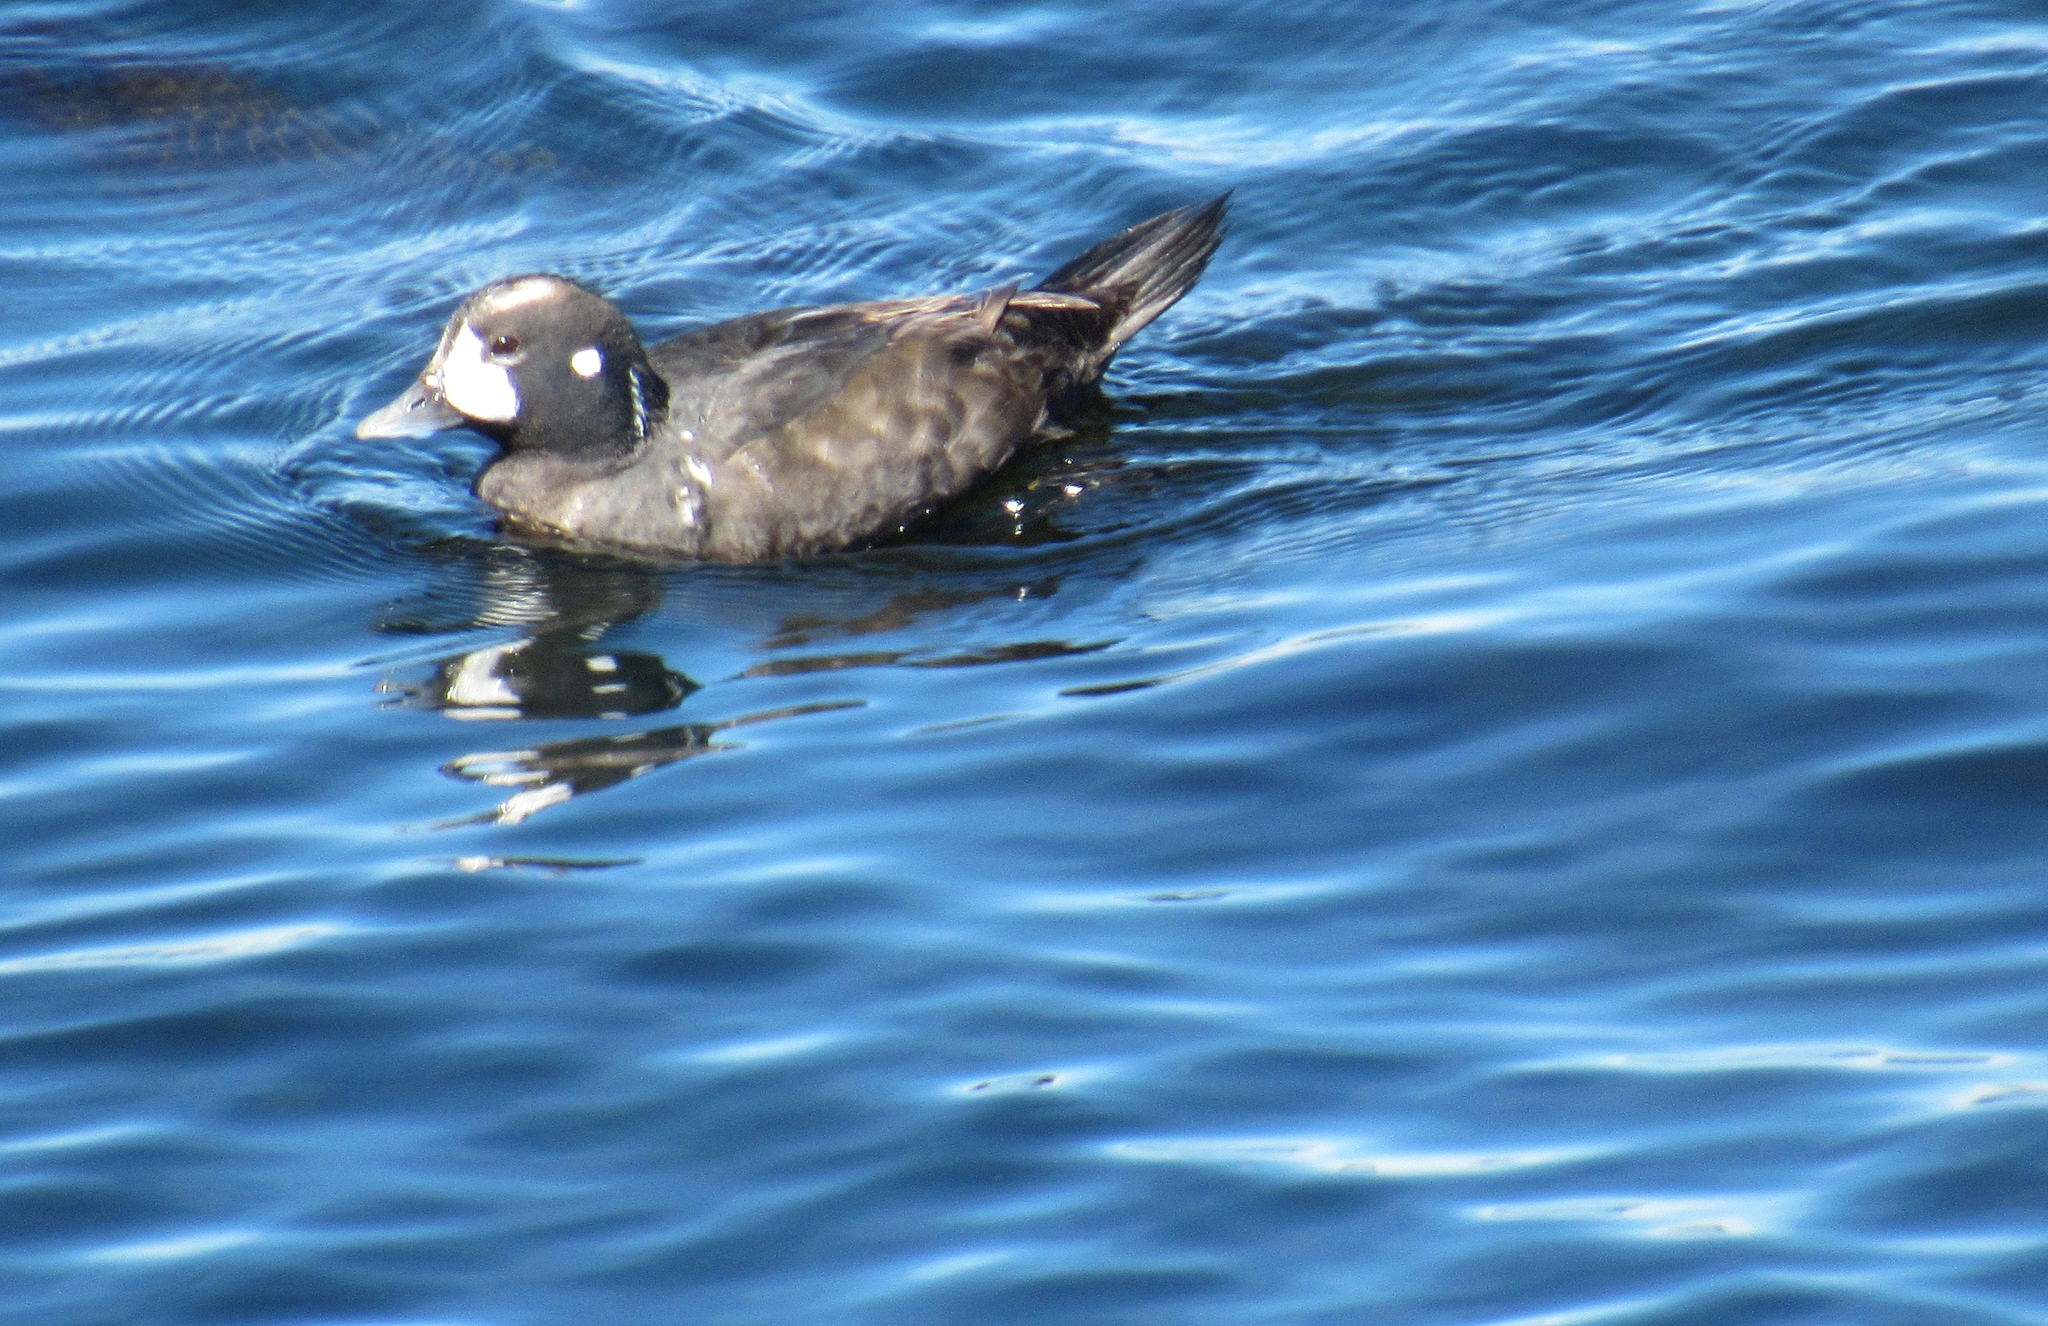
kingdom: Animalia
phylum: Chordata
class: Aves
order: Anseriformes
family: Anatidae
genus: Histrionicus
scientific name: Histrionicus histrionicus
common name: Harlequin duck
